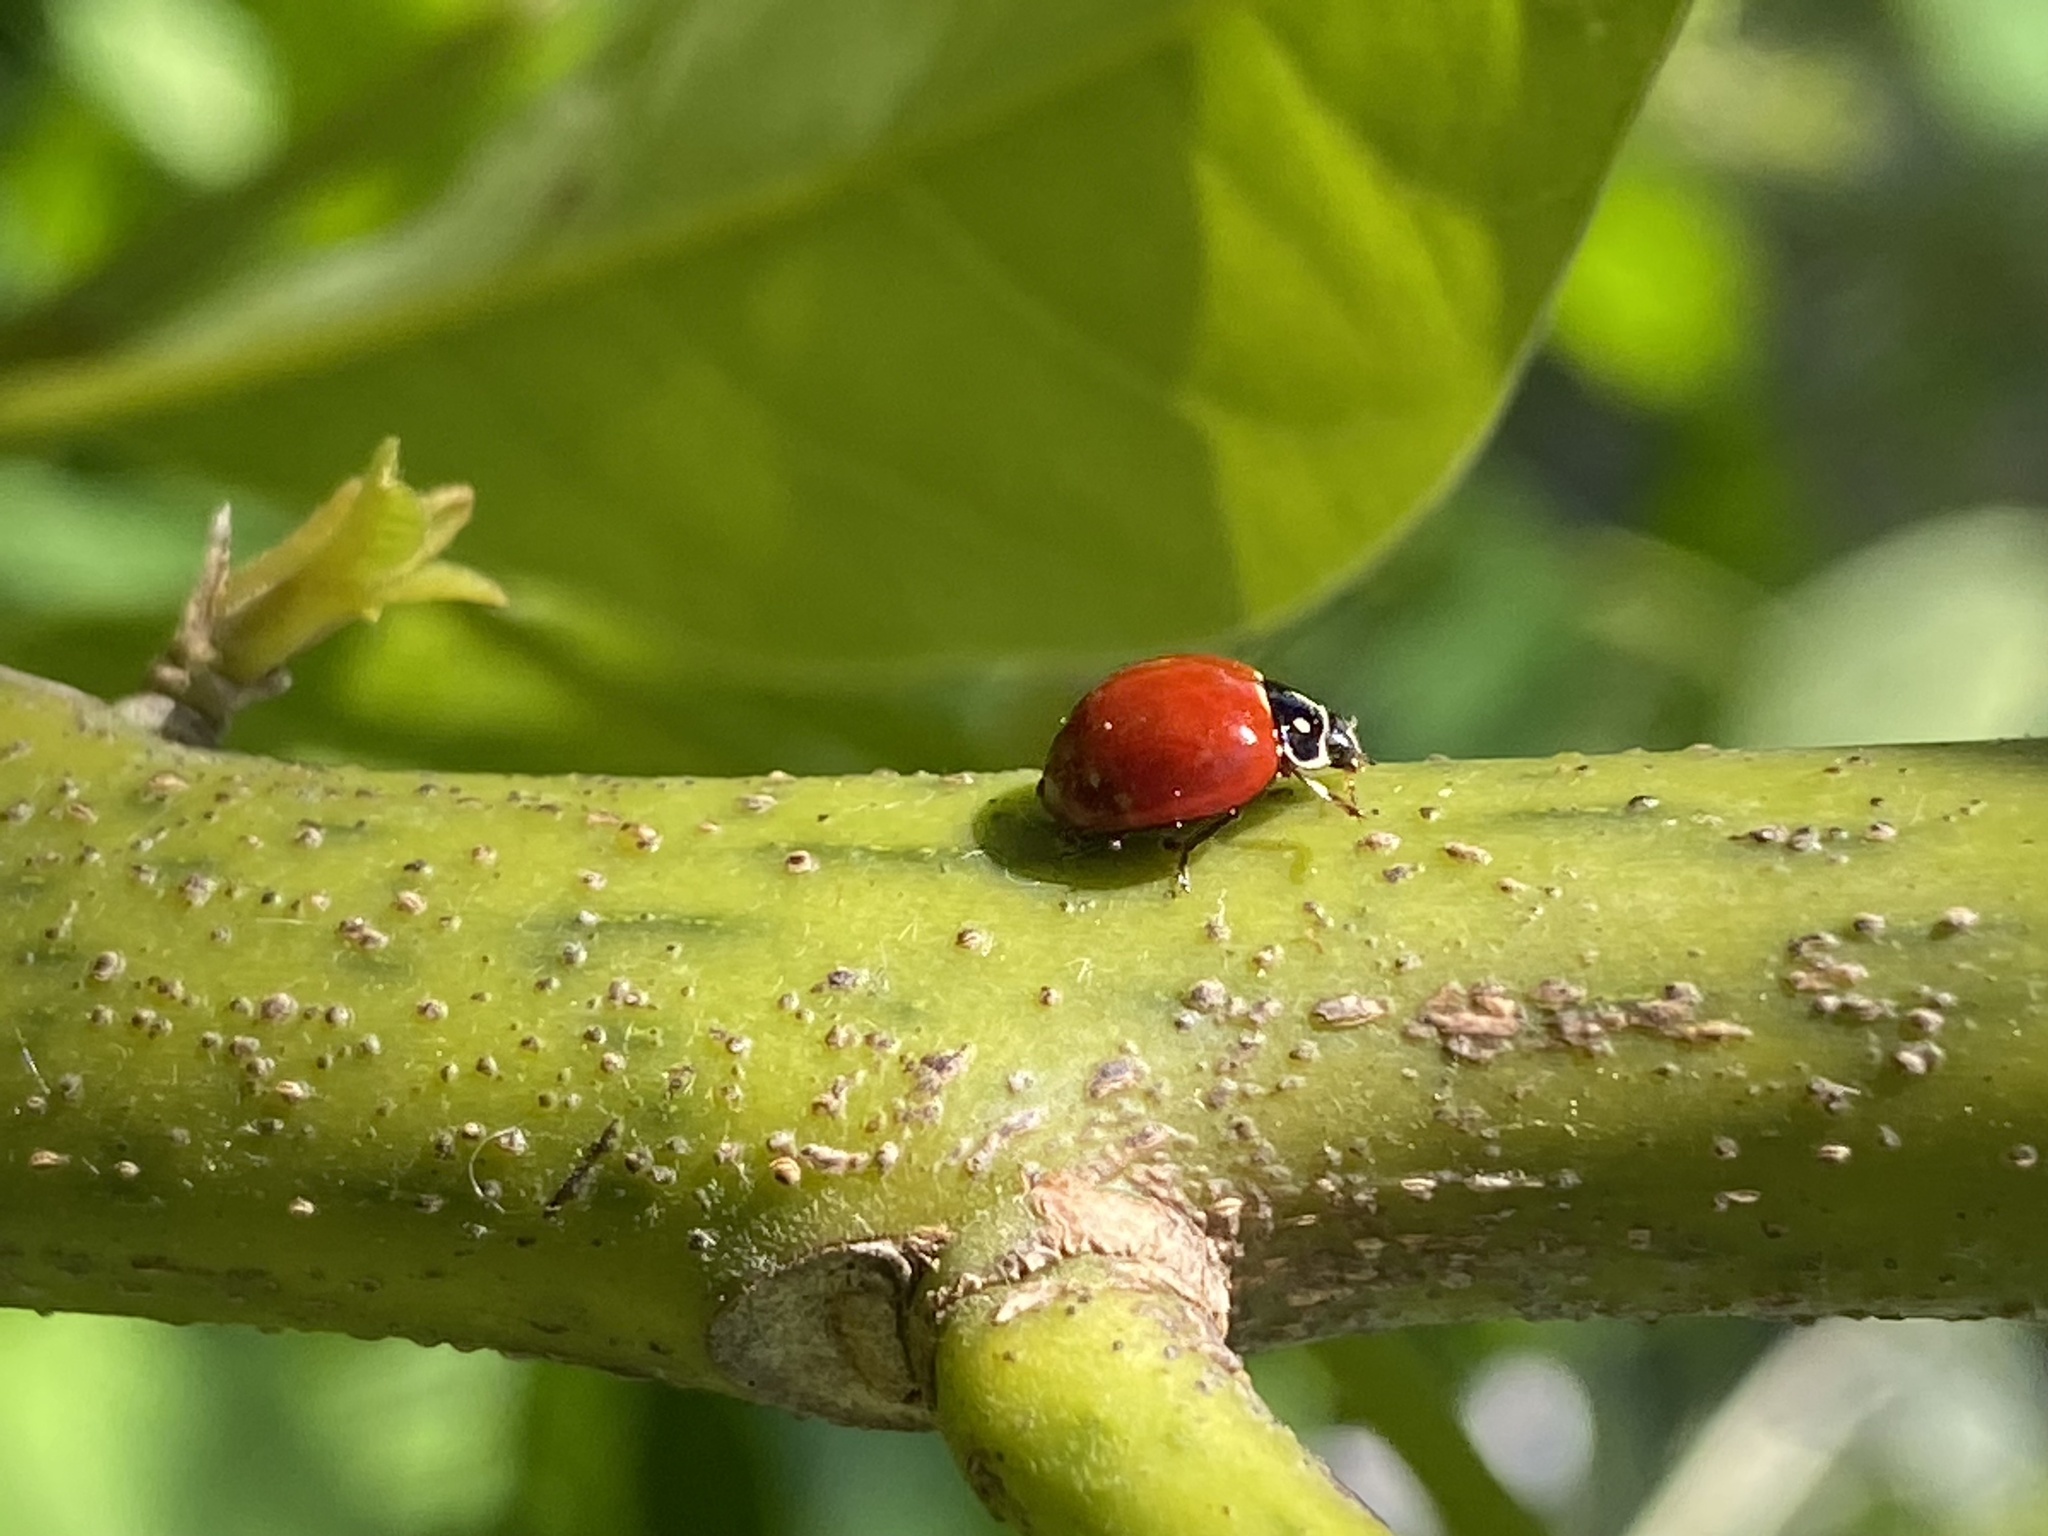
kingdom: Animalia
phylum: Arthropoda
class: Insecta
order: Coleoptera
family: Coccinellidae
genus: Cycloneda
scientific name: Cycloneda sanguinea
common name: Ladybird beetle
